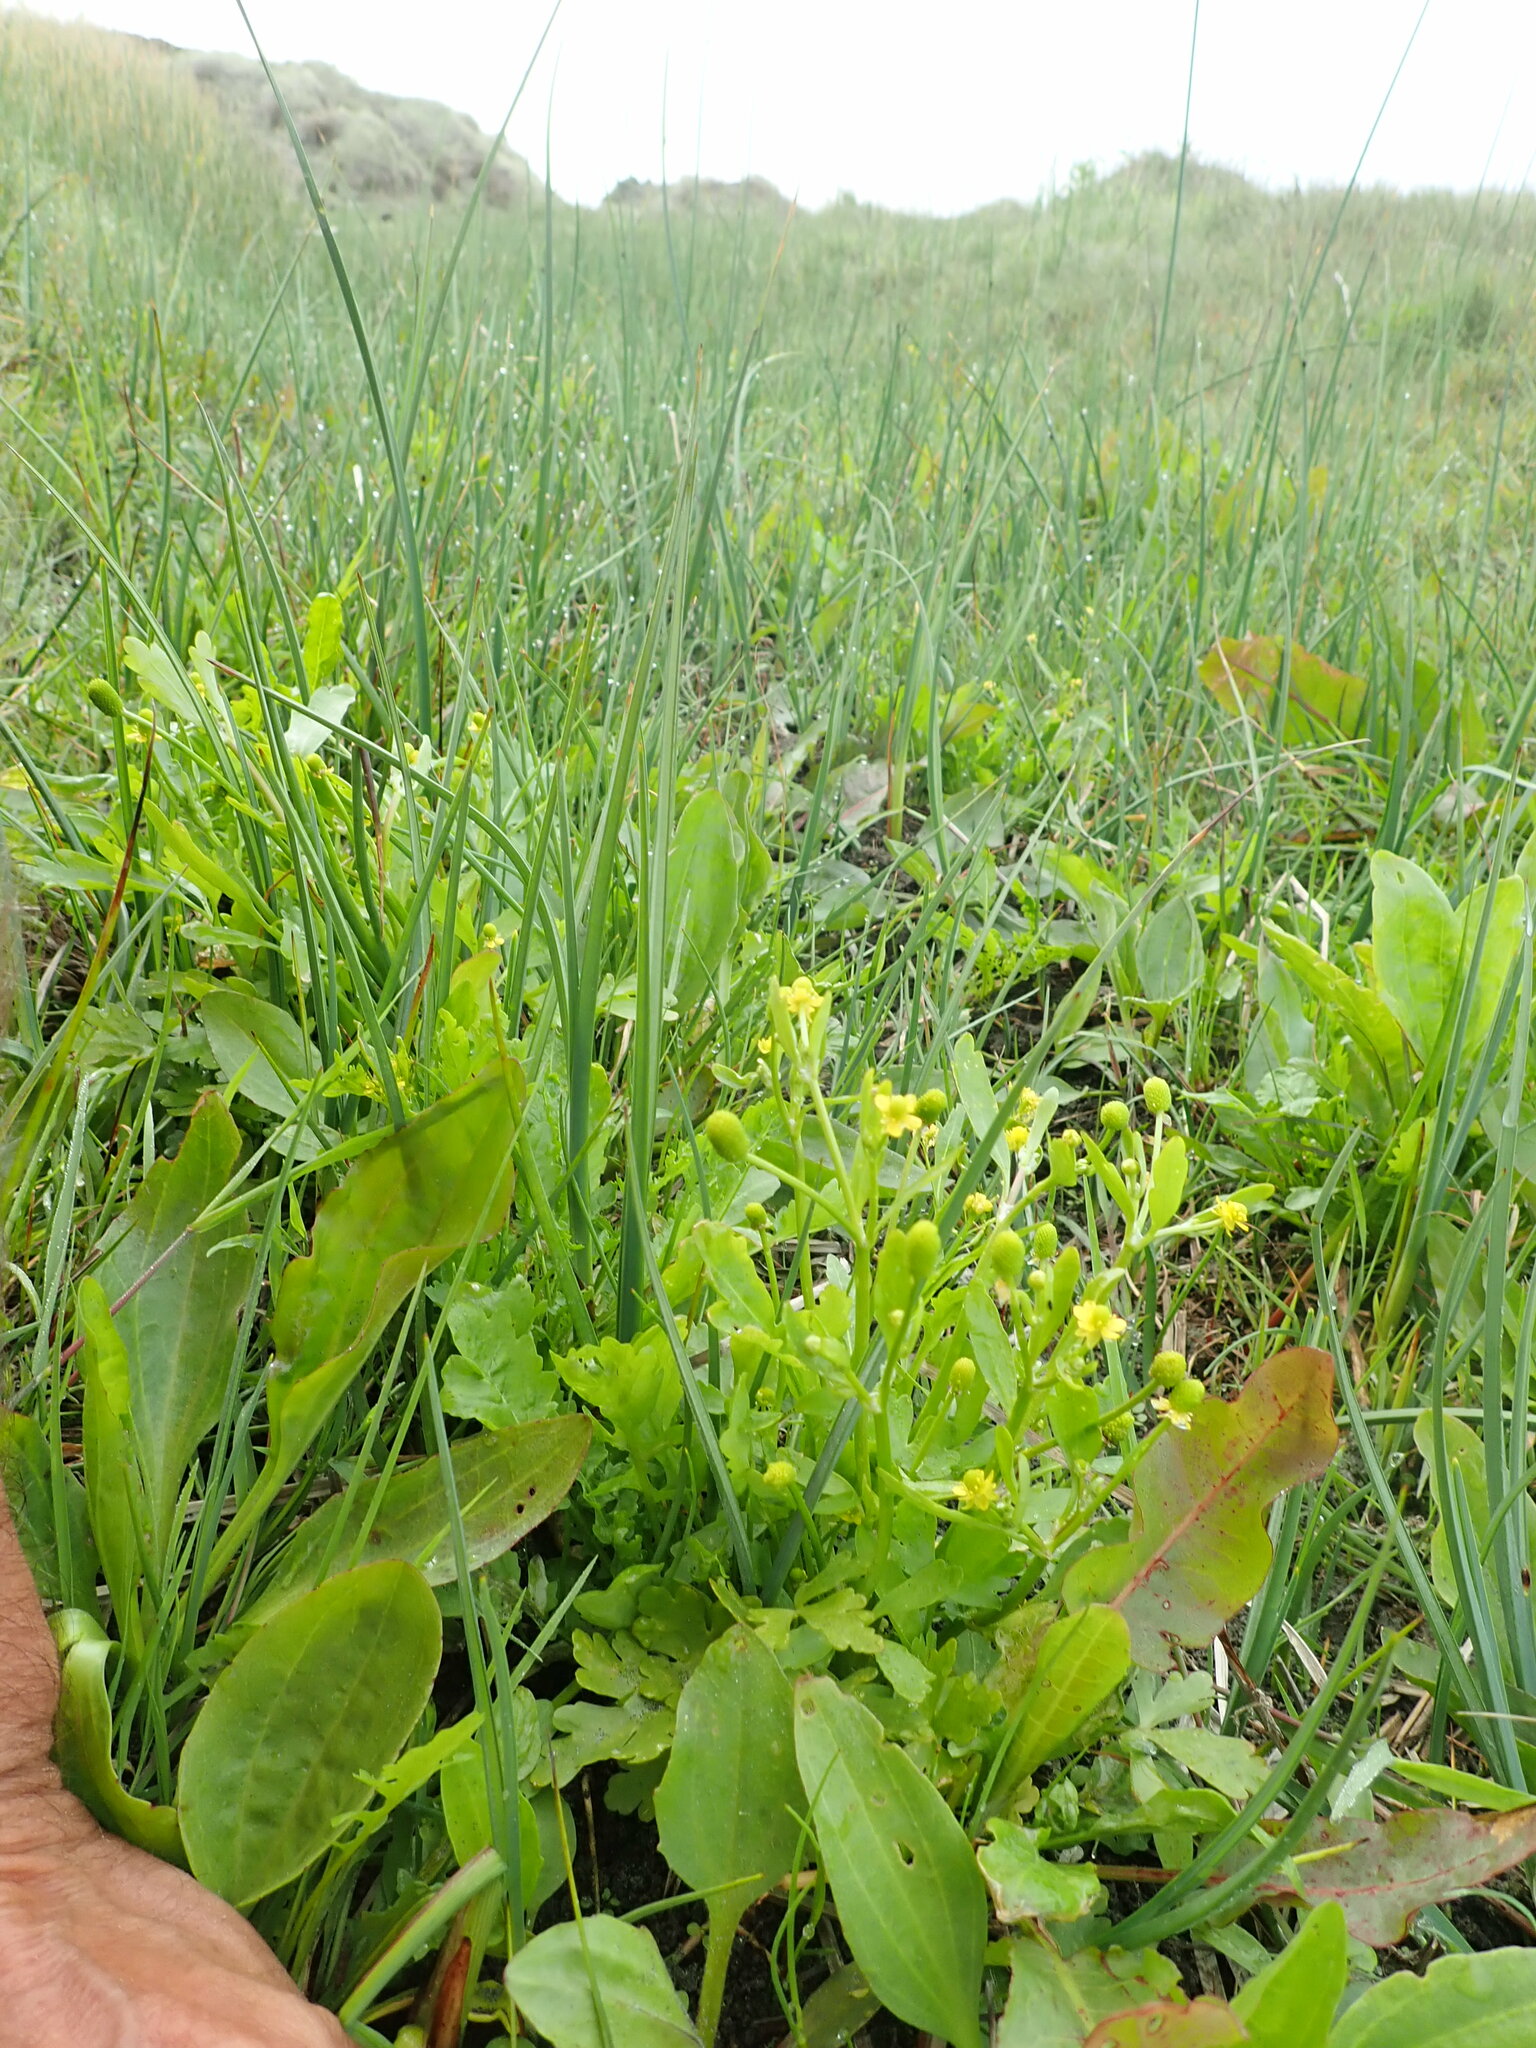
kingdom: Plantae
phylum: Tracheophyta
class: Magnoliopsida
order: Ranunculales
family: Ranunculaceae
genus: Ranunculus
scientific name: Ranunculus sceleratus
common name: Celery-leaved buttercup
